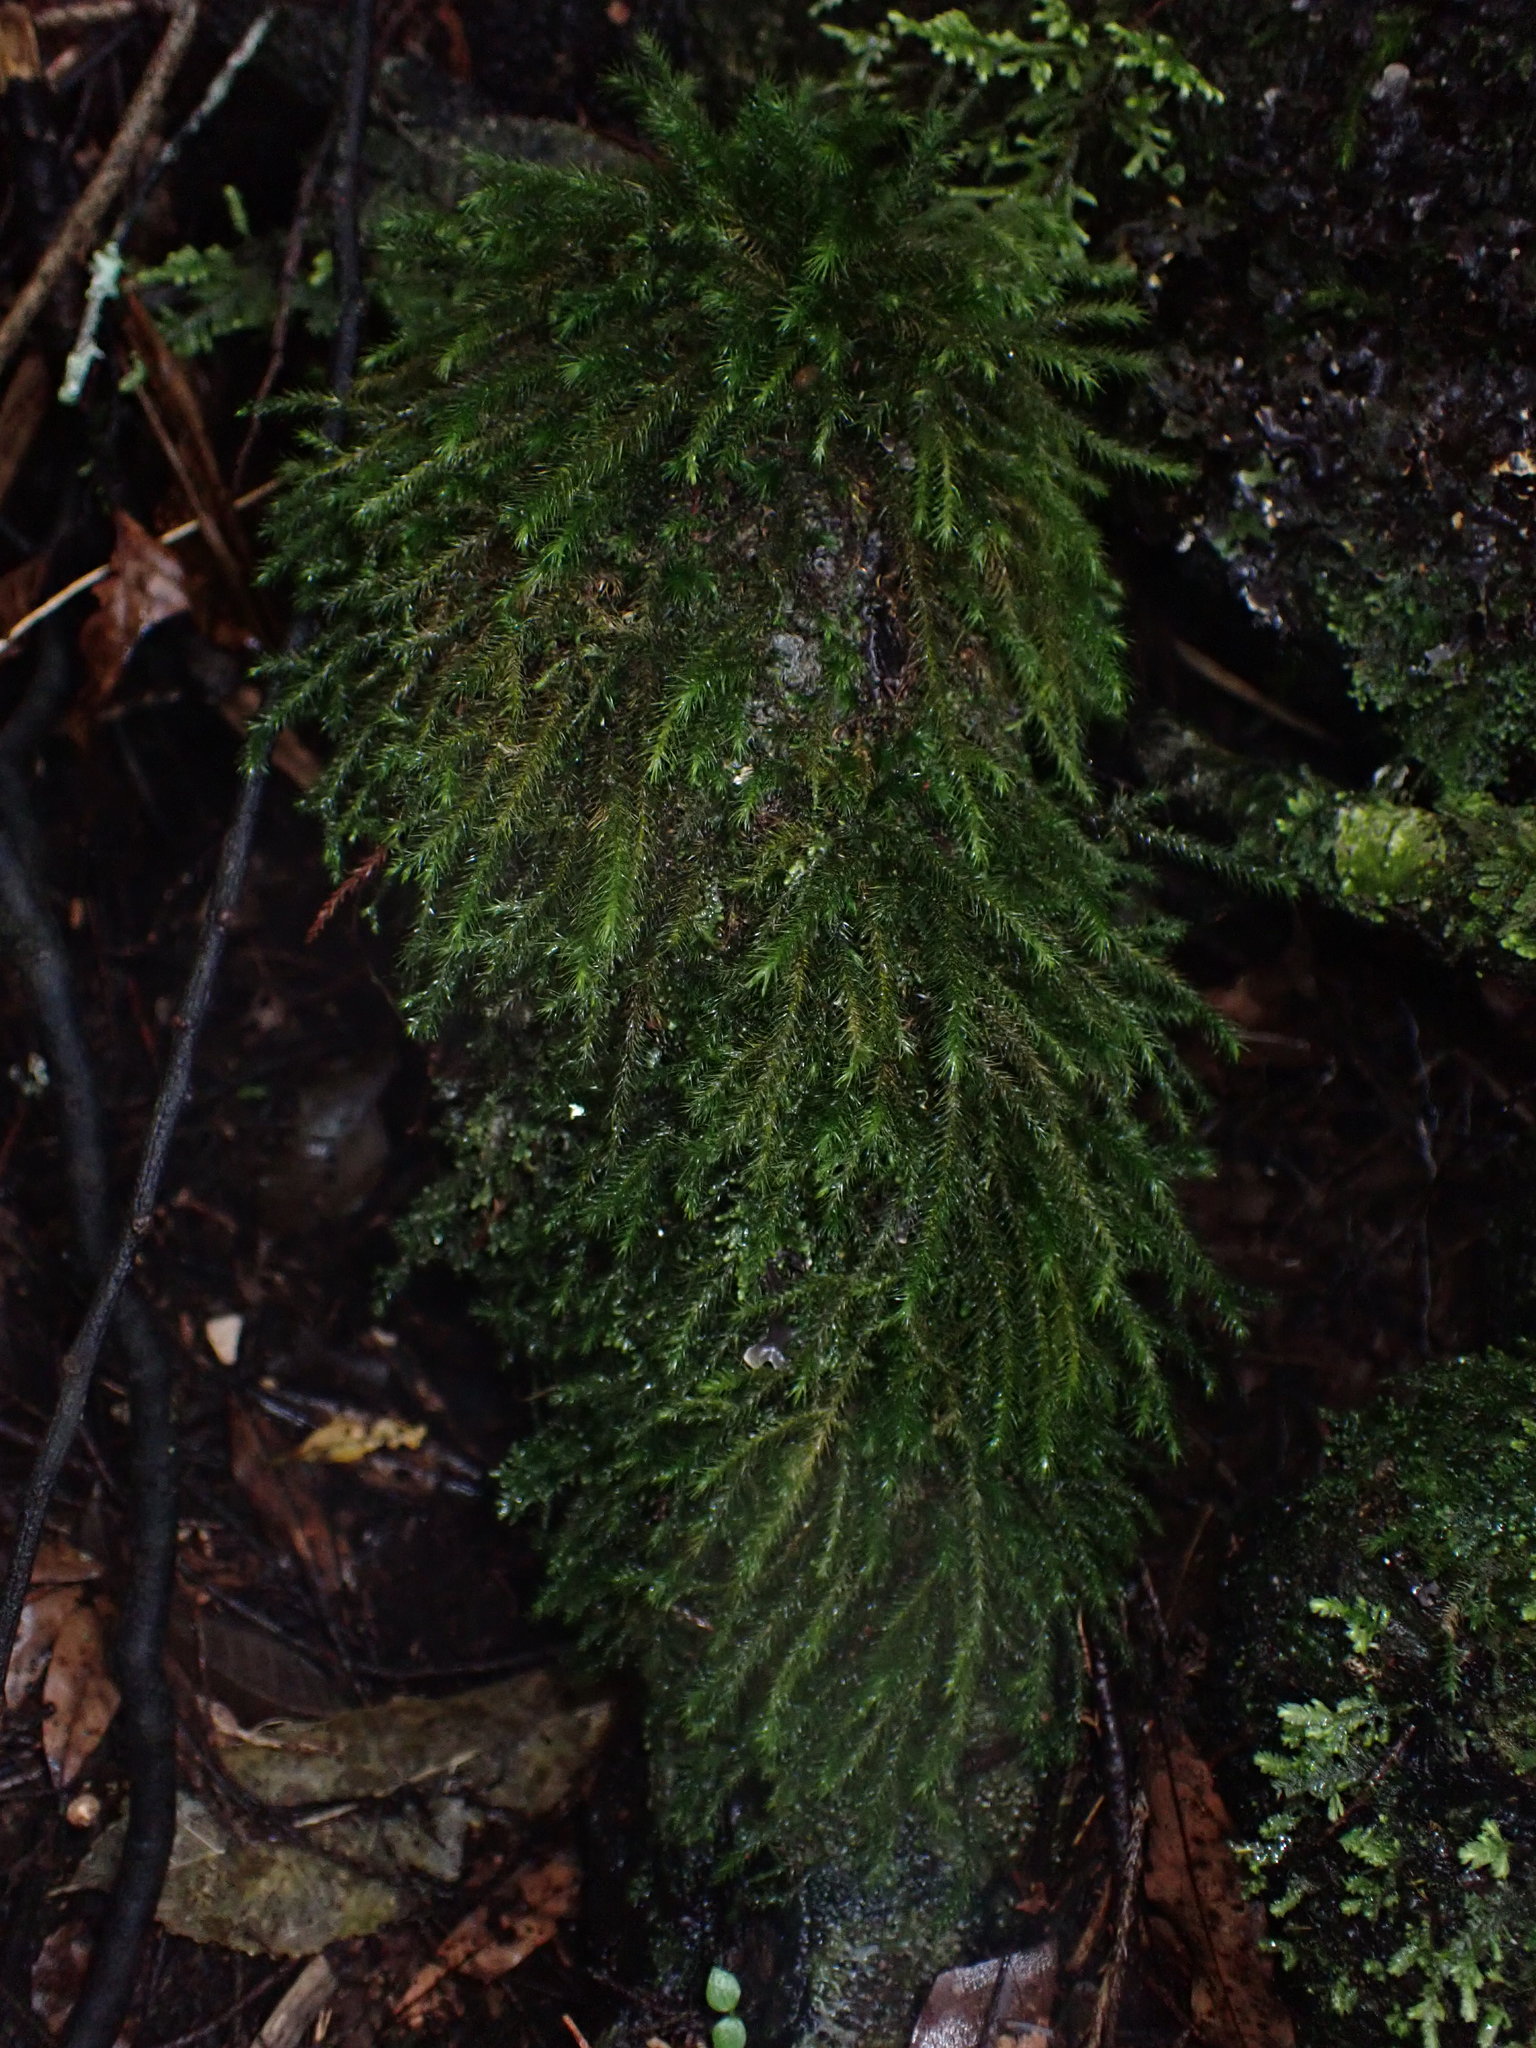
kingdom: Plantae
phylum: Bryophyta
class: Bryopsida
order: Hypnales
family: Neckeraceae
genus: Echinodiopsis
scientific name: Echinodiopsis hispida
